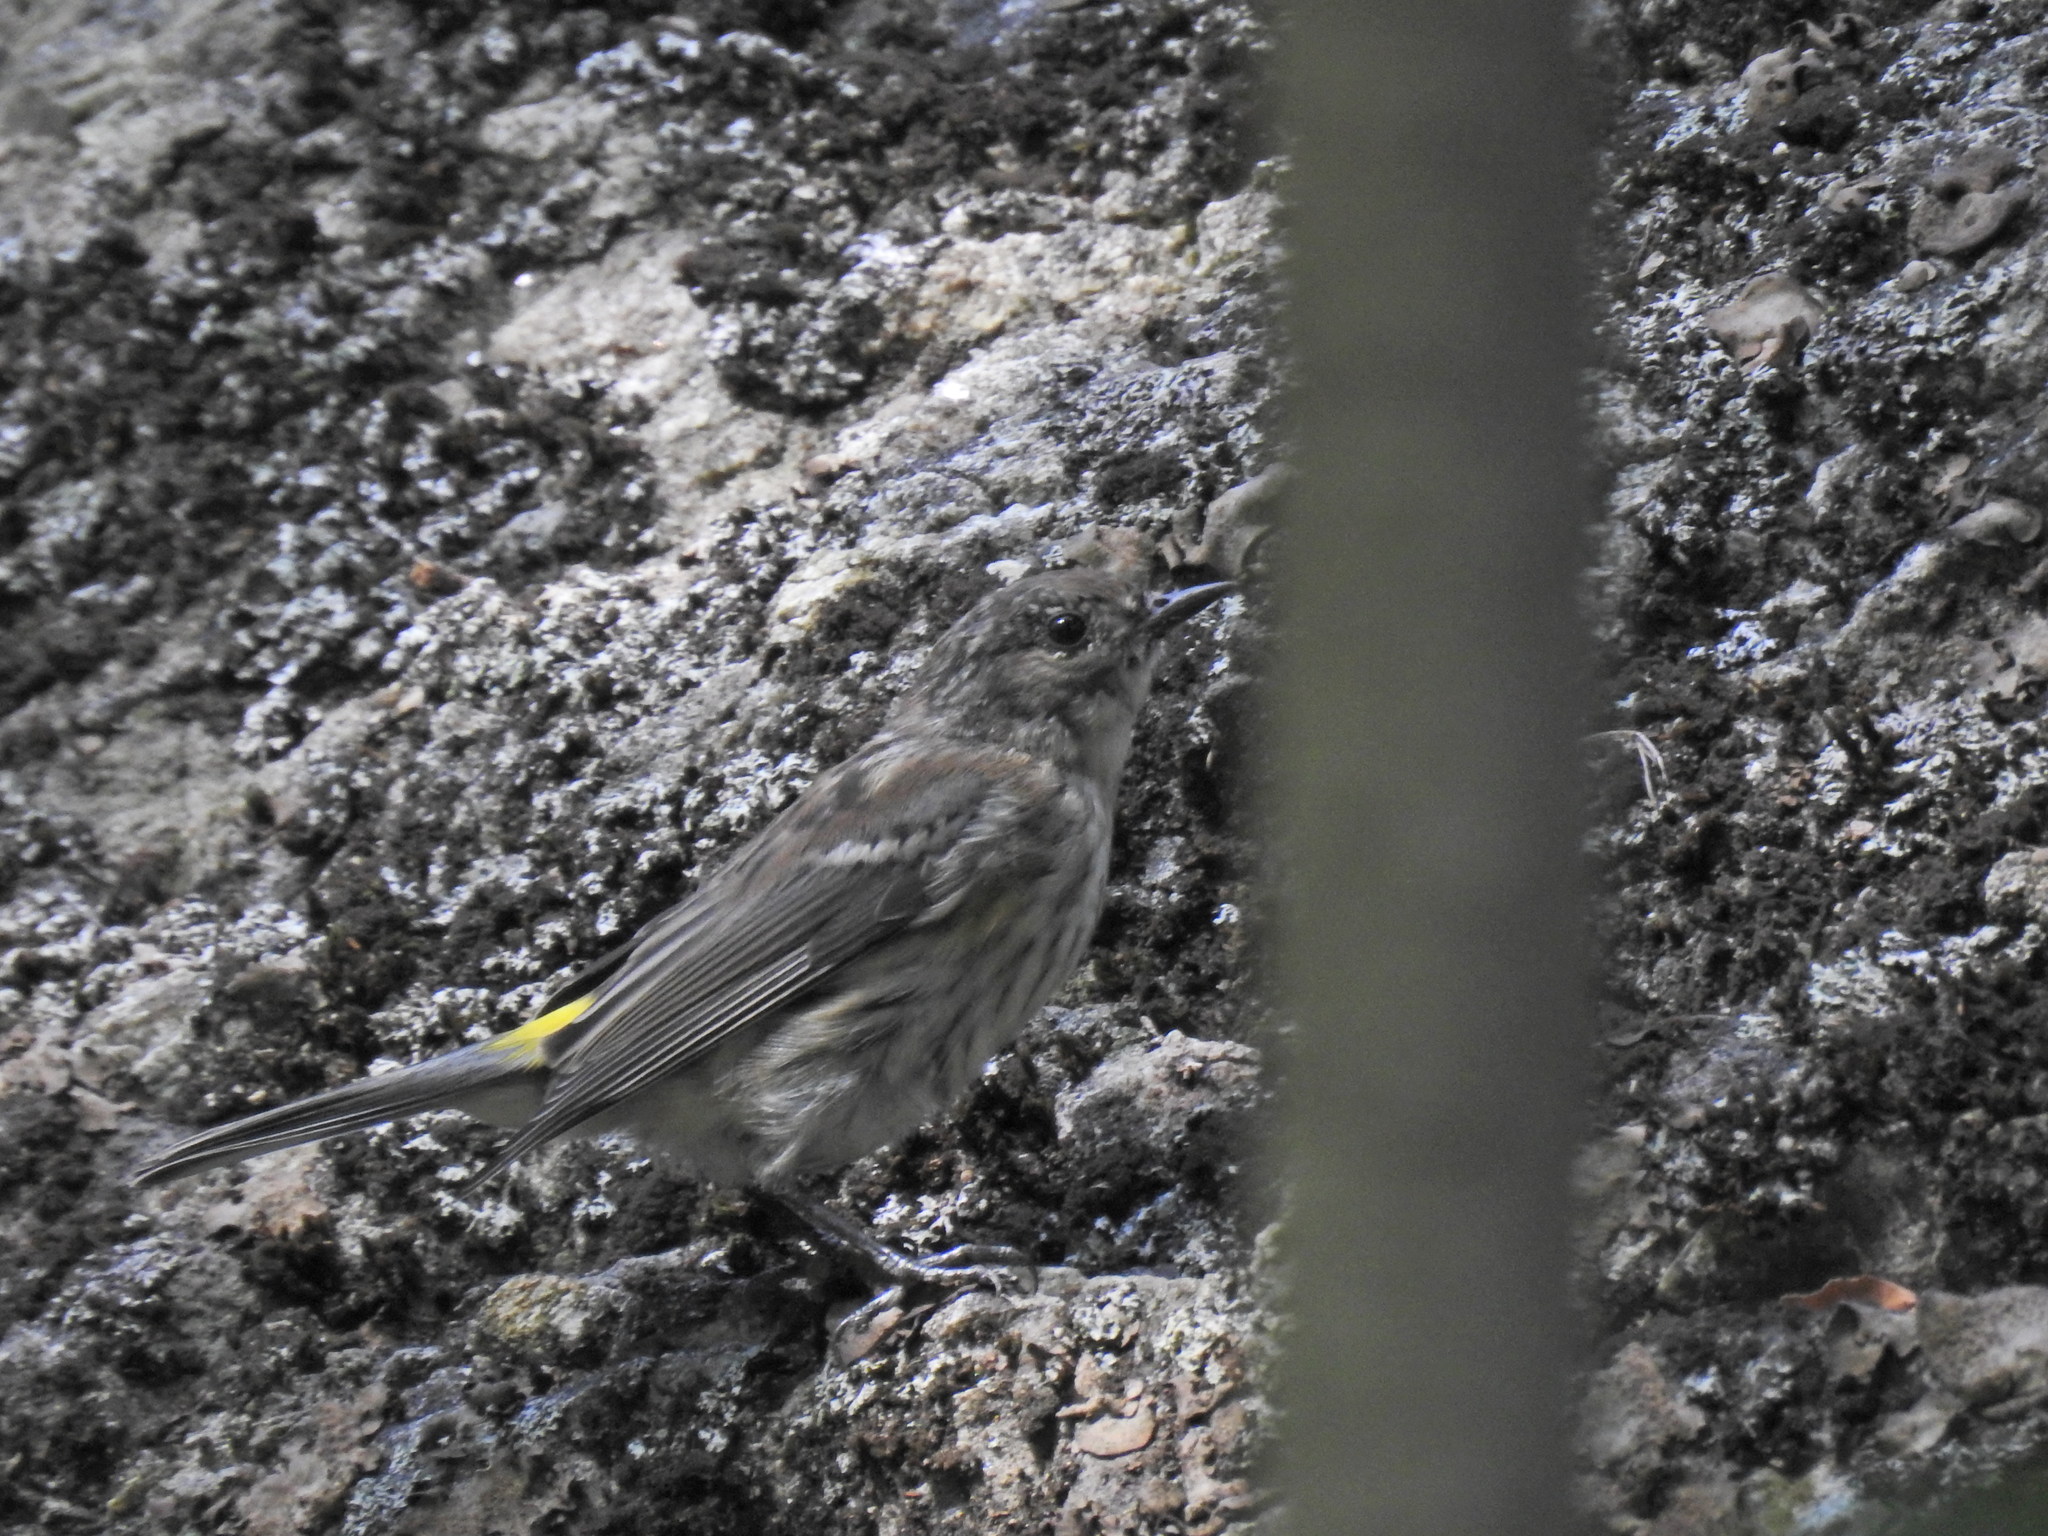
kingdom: Animalia
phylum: Chordata
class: Aves
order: Passeriformes
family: Parulidae
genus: Setophaga
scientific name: Setophaga coronata
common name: Myrtle warbler
